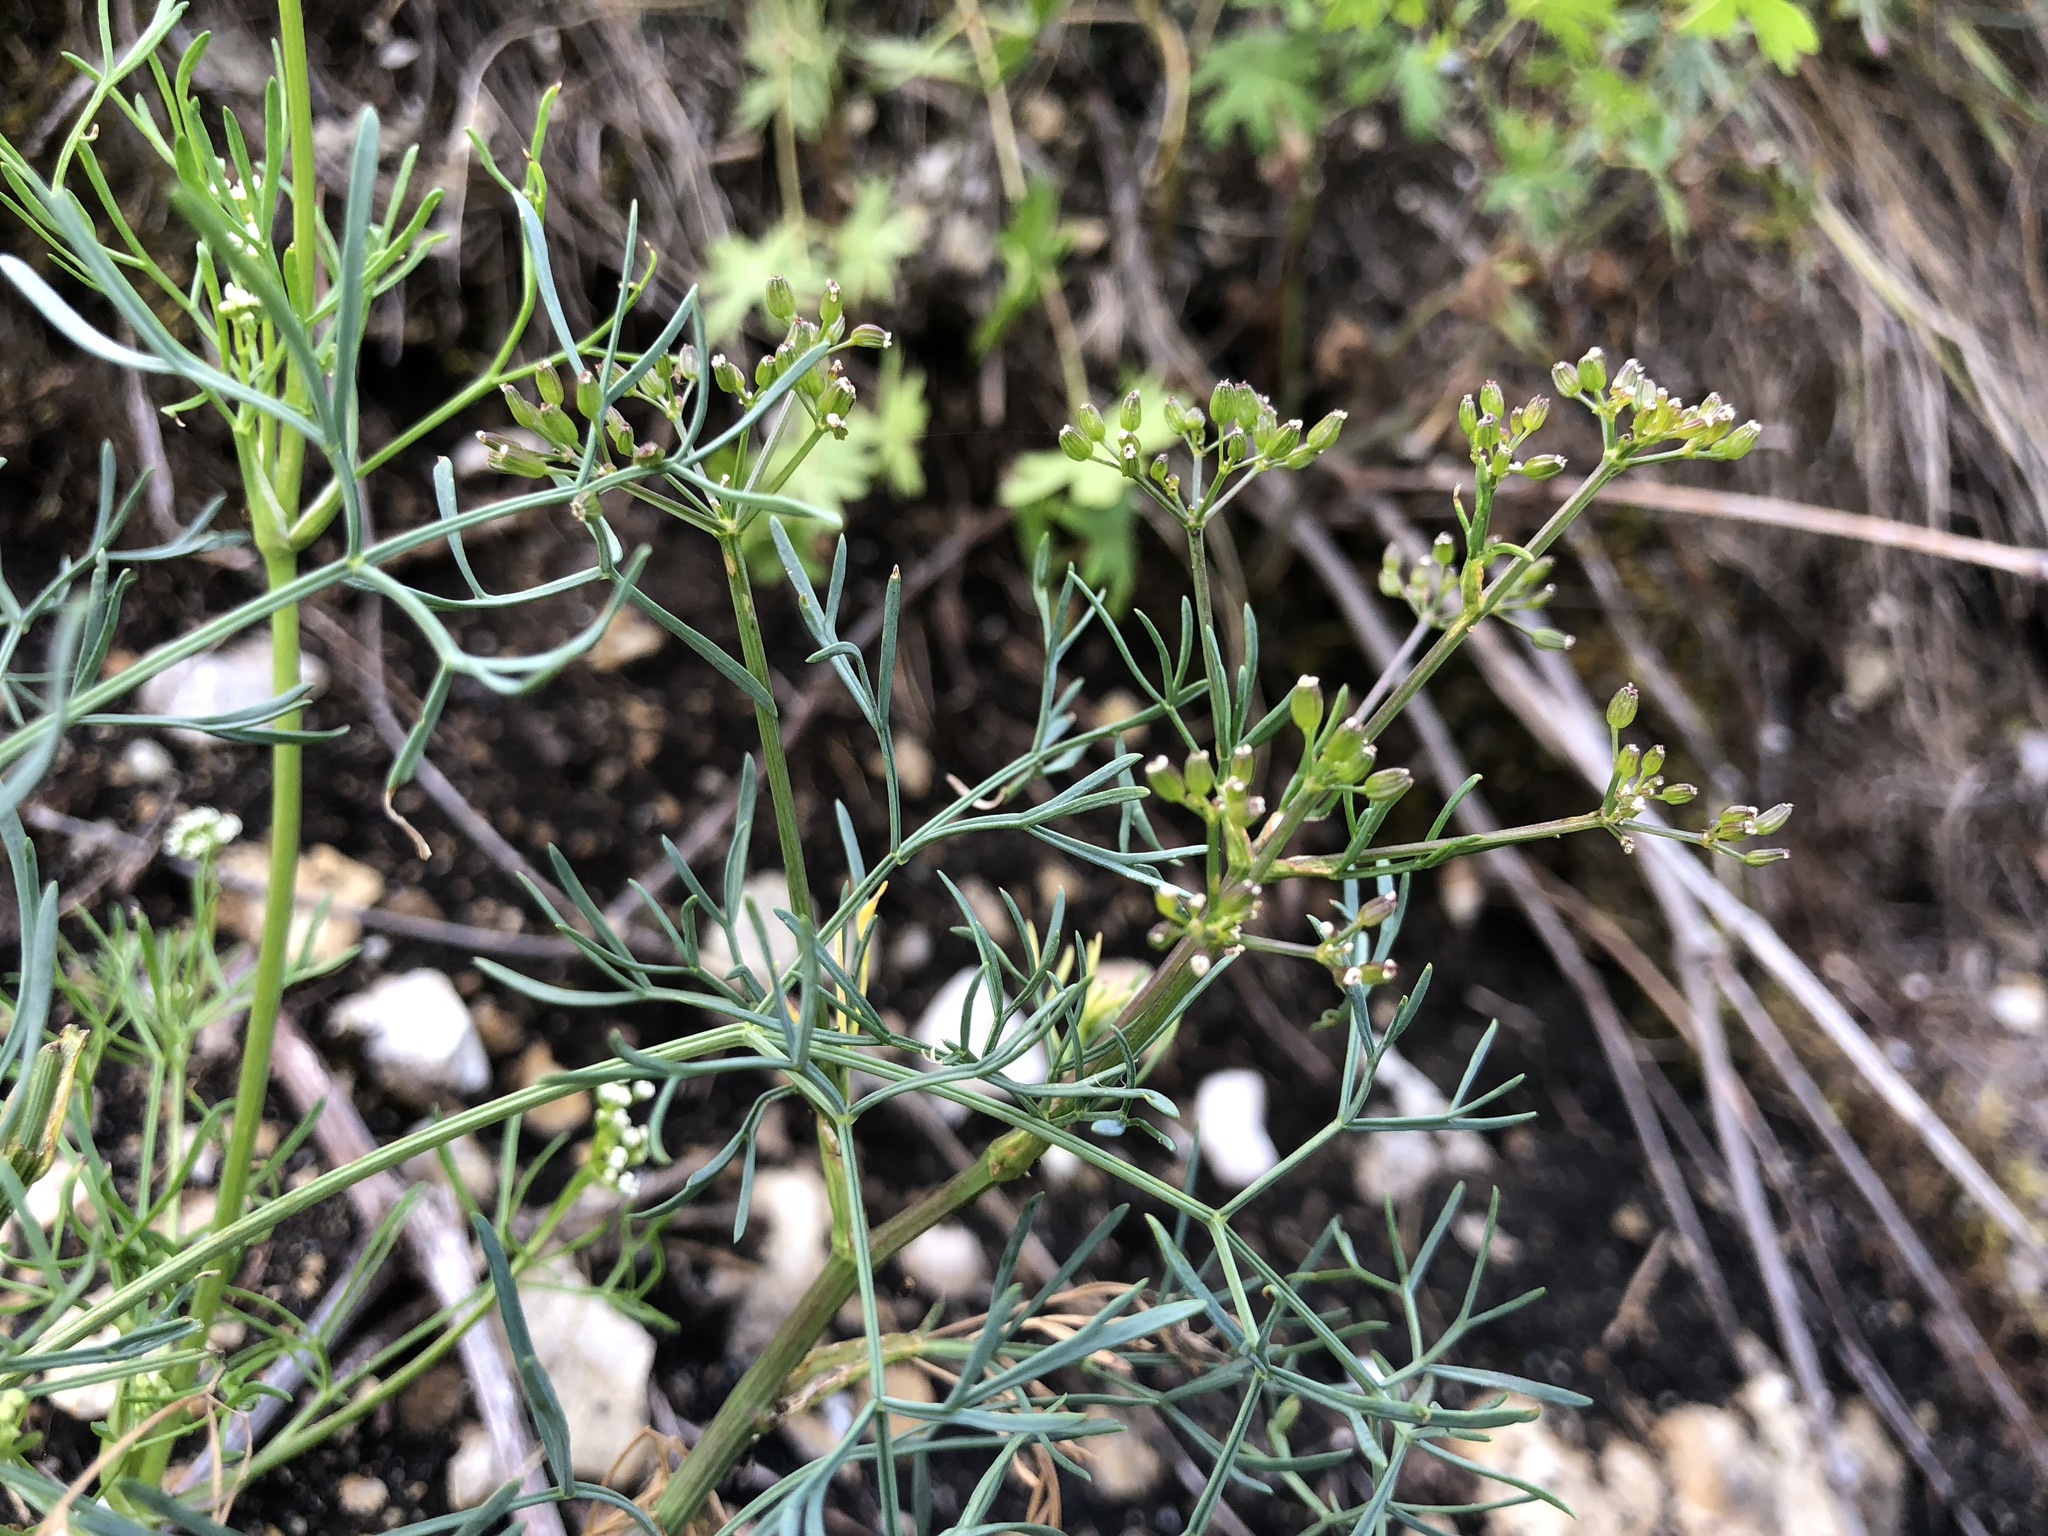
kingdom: Plantae
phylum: Tracheophyta
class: Magnoliopsida
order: Apiales
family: Apiaceae
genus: Trinia
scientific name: Trinia glauca
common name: Honewort
